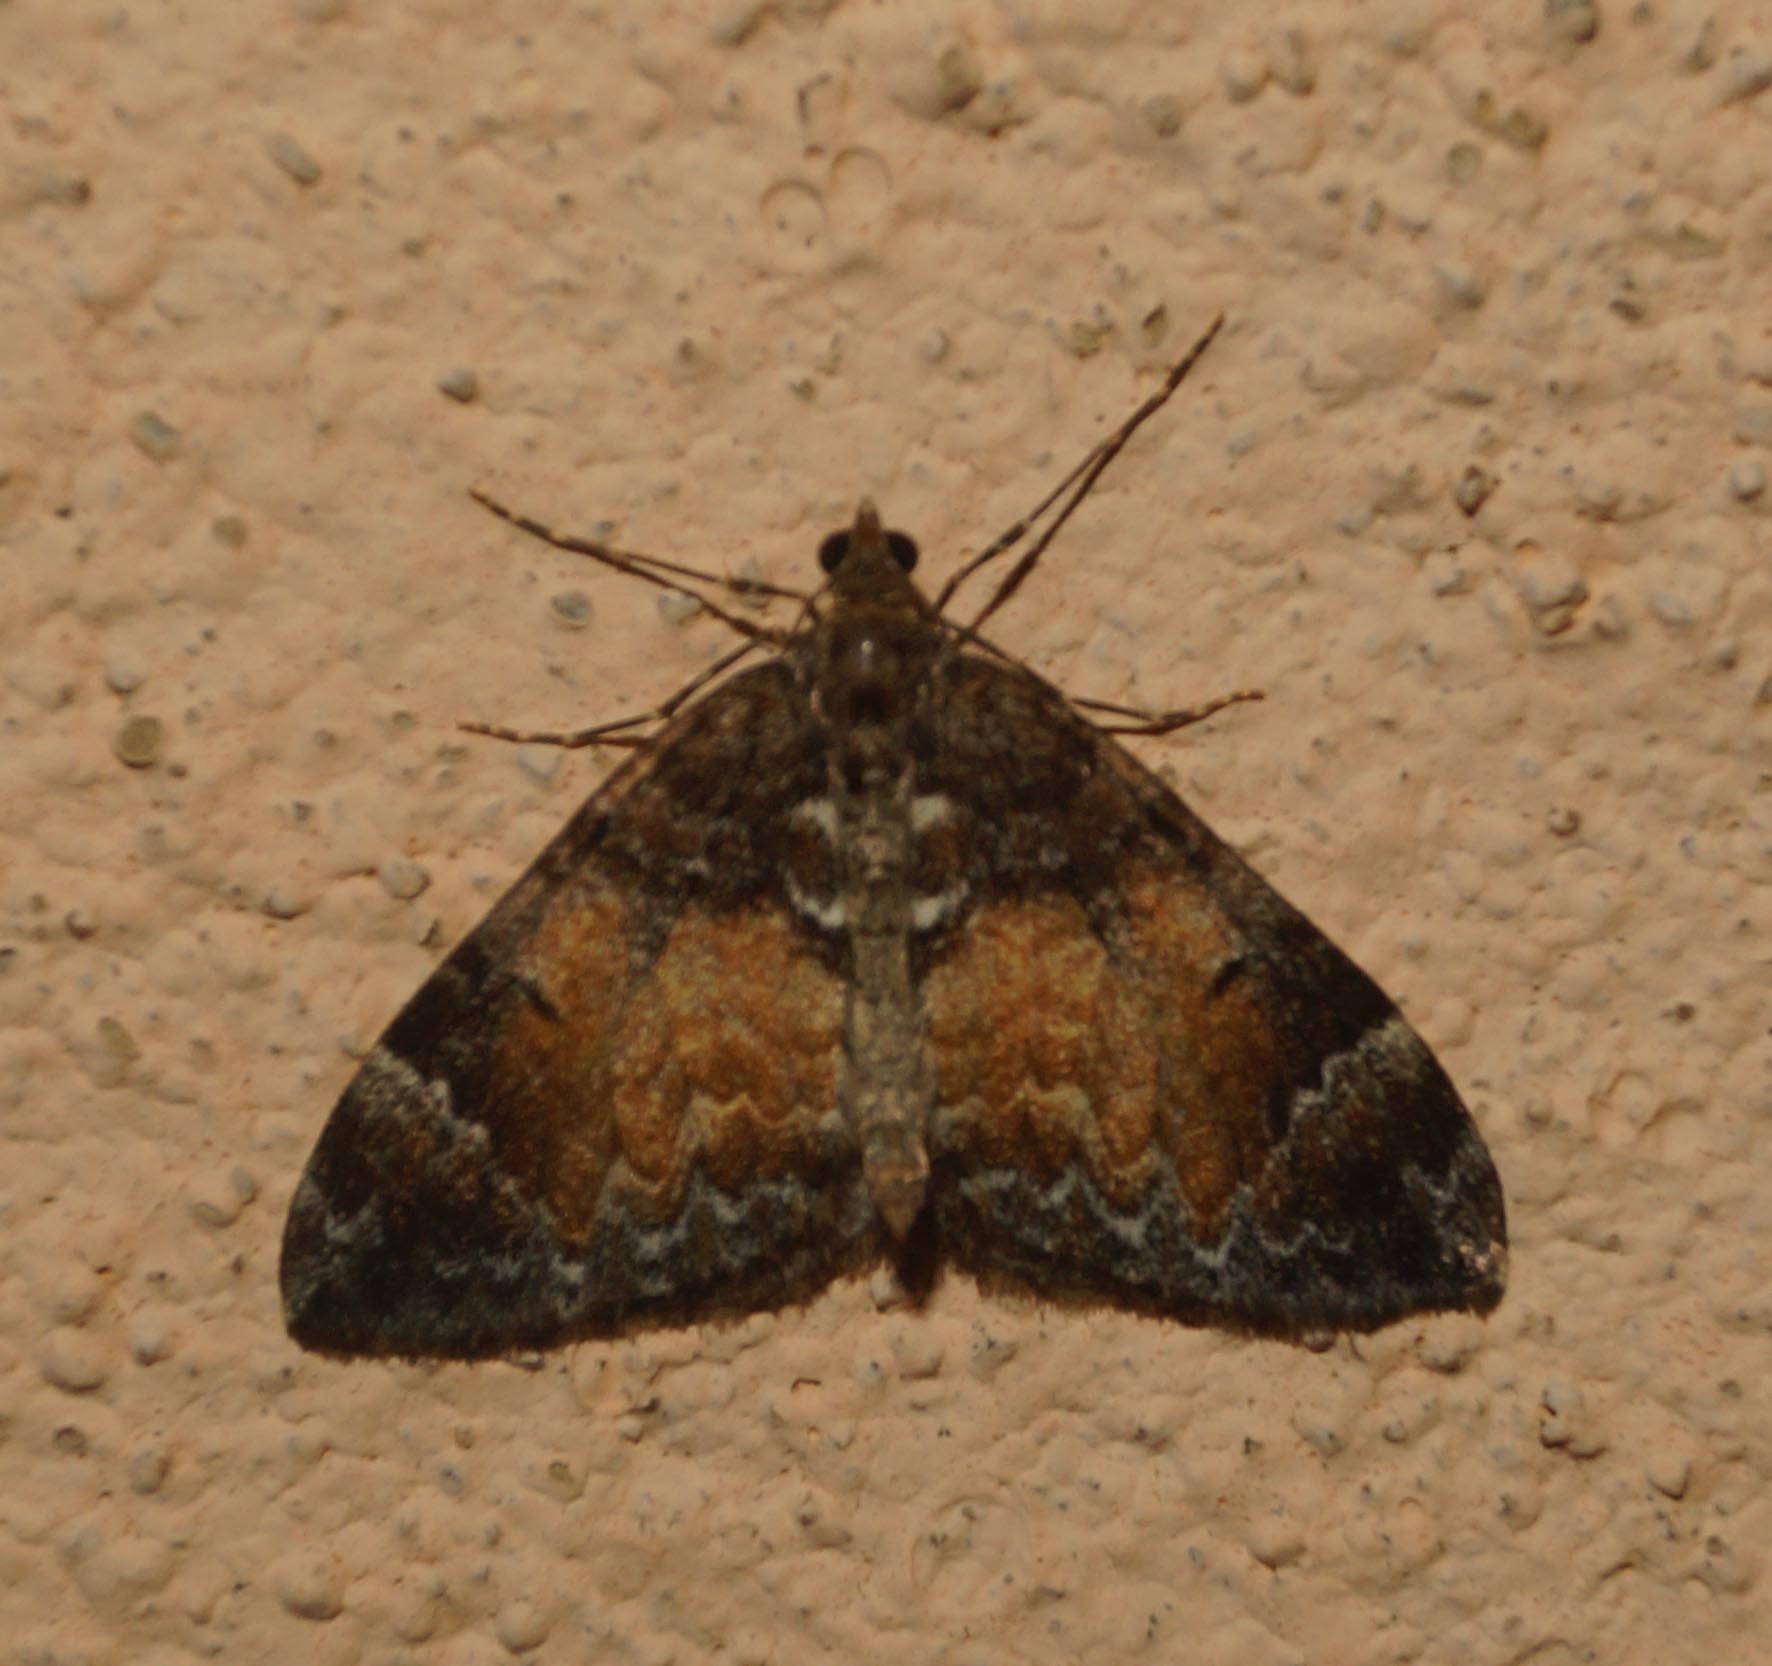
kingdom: Animalia
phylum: Arthropoda
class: Insecta
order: Lepidoptera
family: Geometridae
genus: Dysstroma
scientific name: Dysstroma truncata
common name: Common marbled carpet
